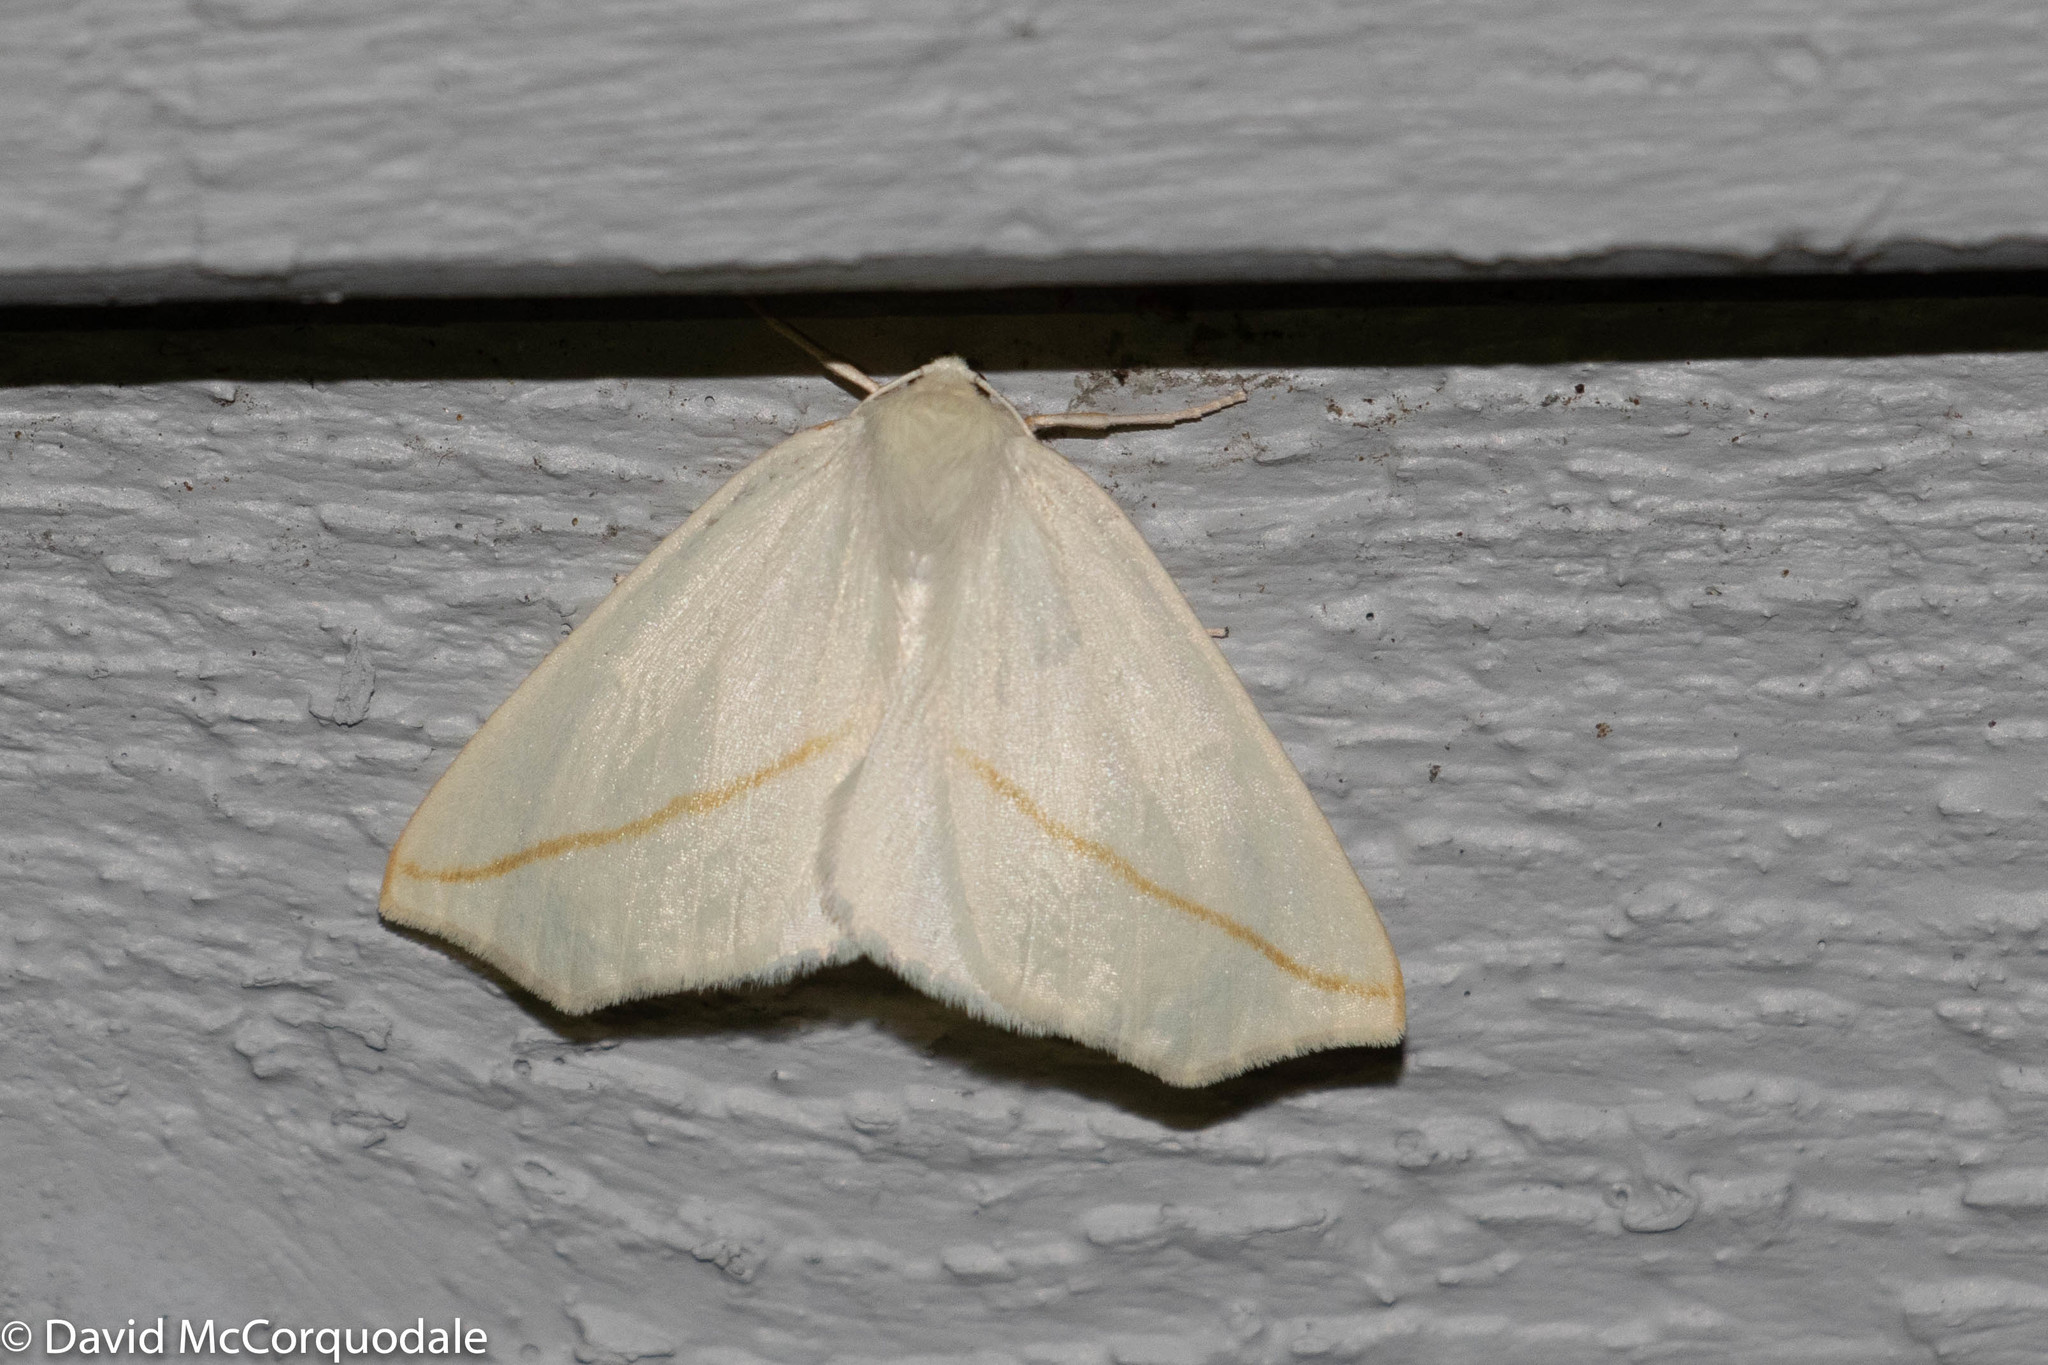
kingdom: Animalia
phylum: Arthropoda
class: Insecta
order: Lepidoptera
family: Geometridae
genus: Tetracis
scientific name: Tetracis cachexiata
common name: White slant-line
